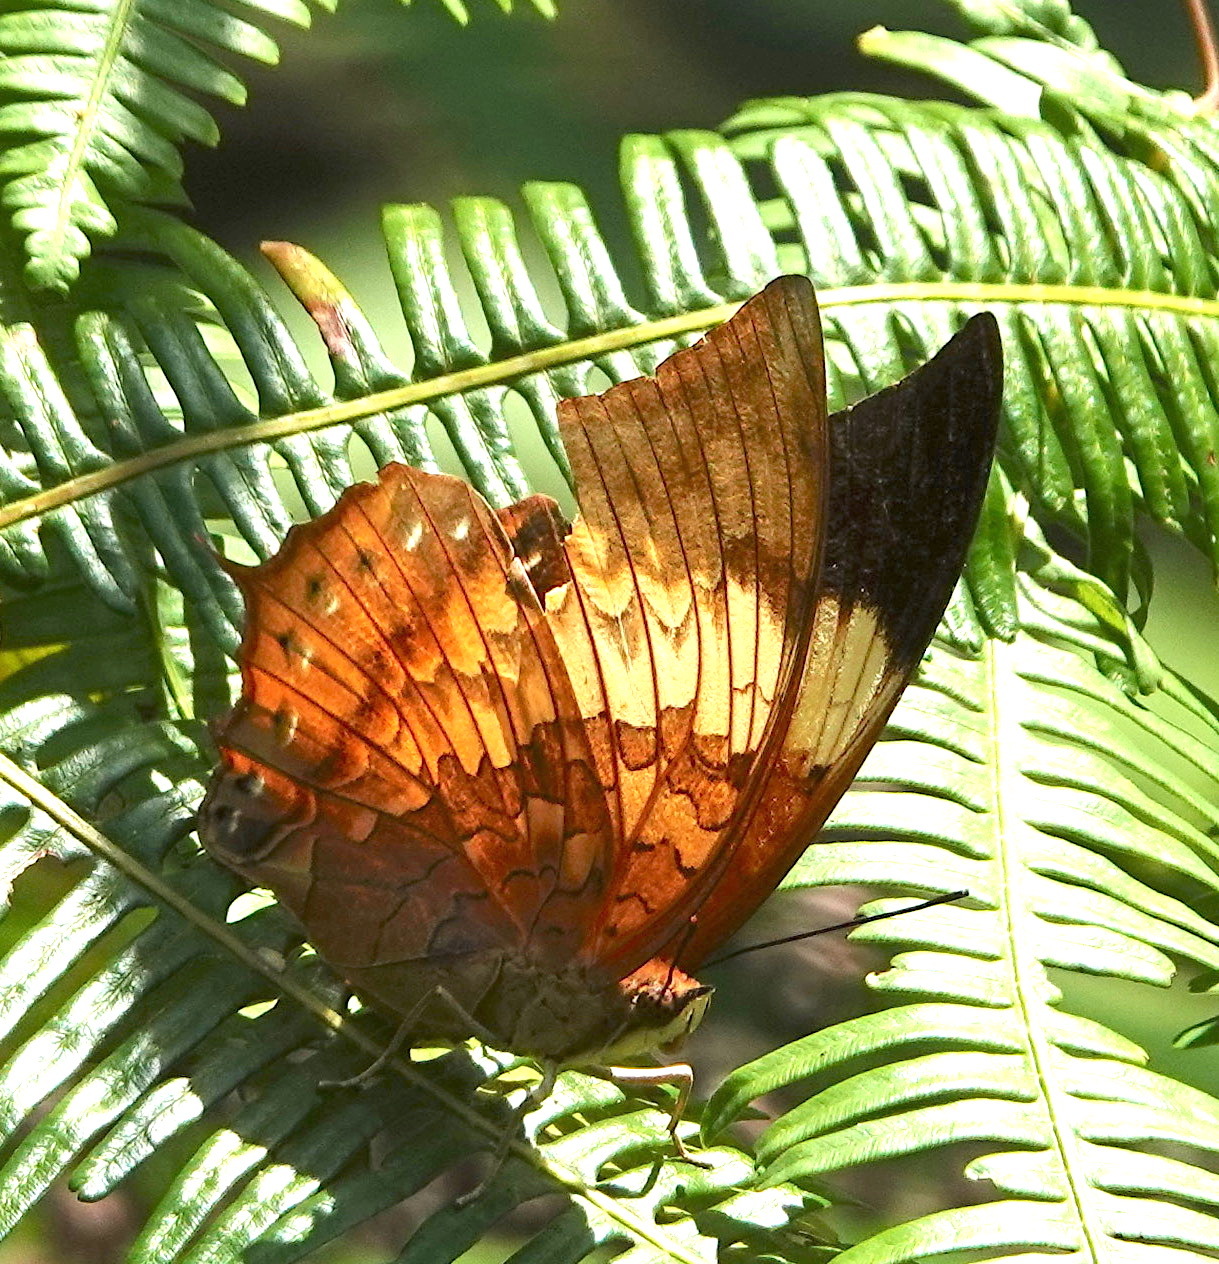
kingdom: Animalia
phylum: Arthropoda
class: Insecta
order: Lepidoptera
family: Nymphalidae
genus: Charaxes
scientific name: Charaxes bernardus
